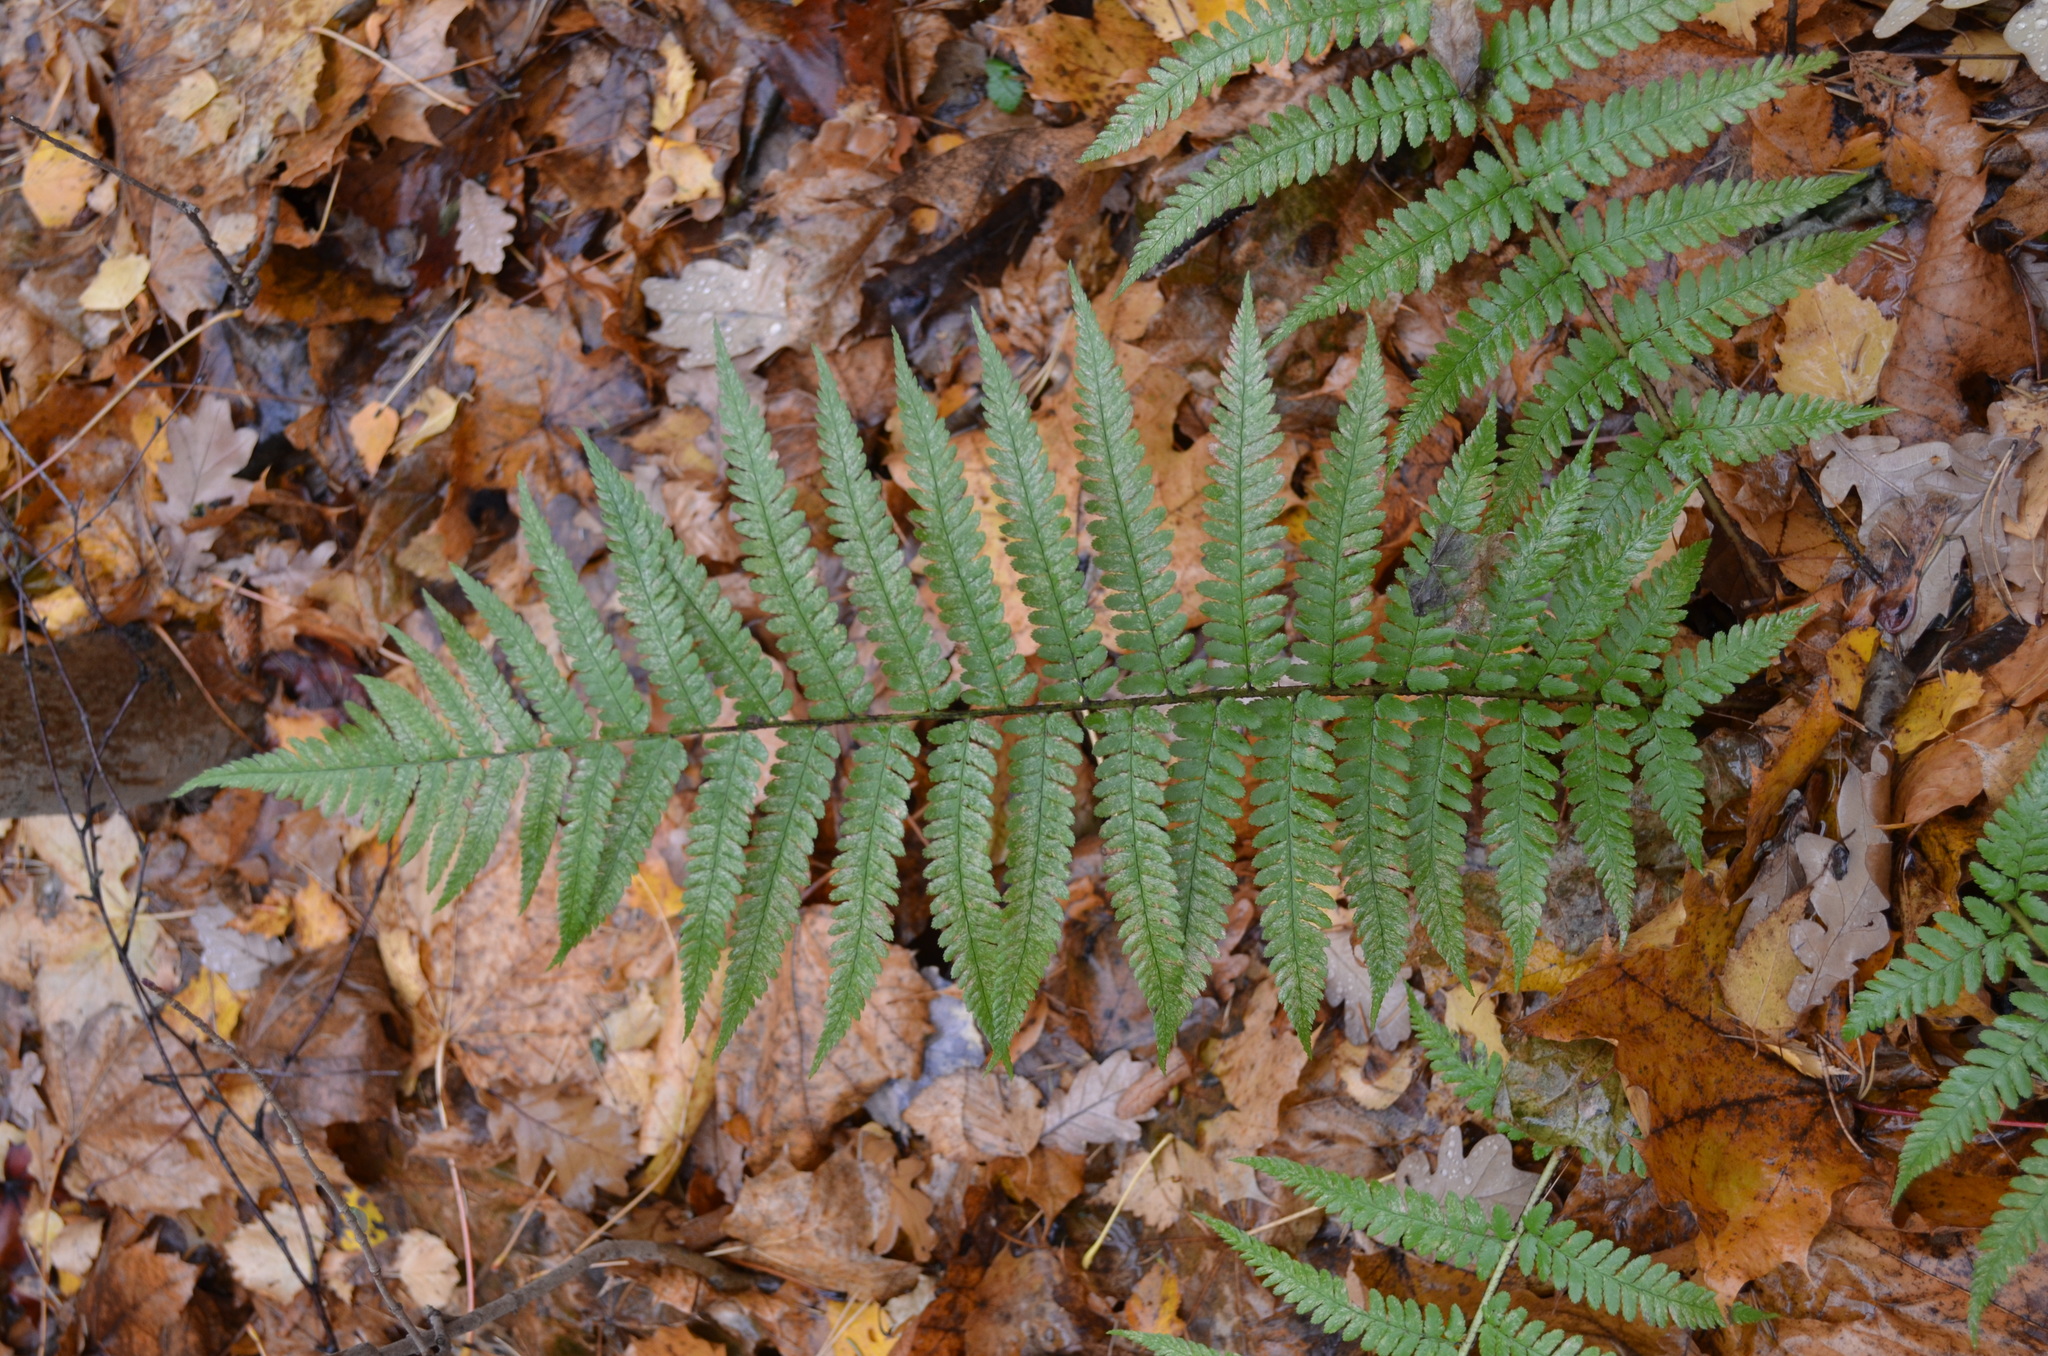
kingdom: Plantae
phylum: Tracheophyta
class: Polypodiopsida
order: Polypodiales
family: Dryopteridaceae
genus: Dryopteris
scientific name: Dryopteris filix-mas
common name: Male fern
